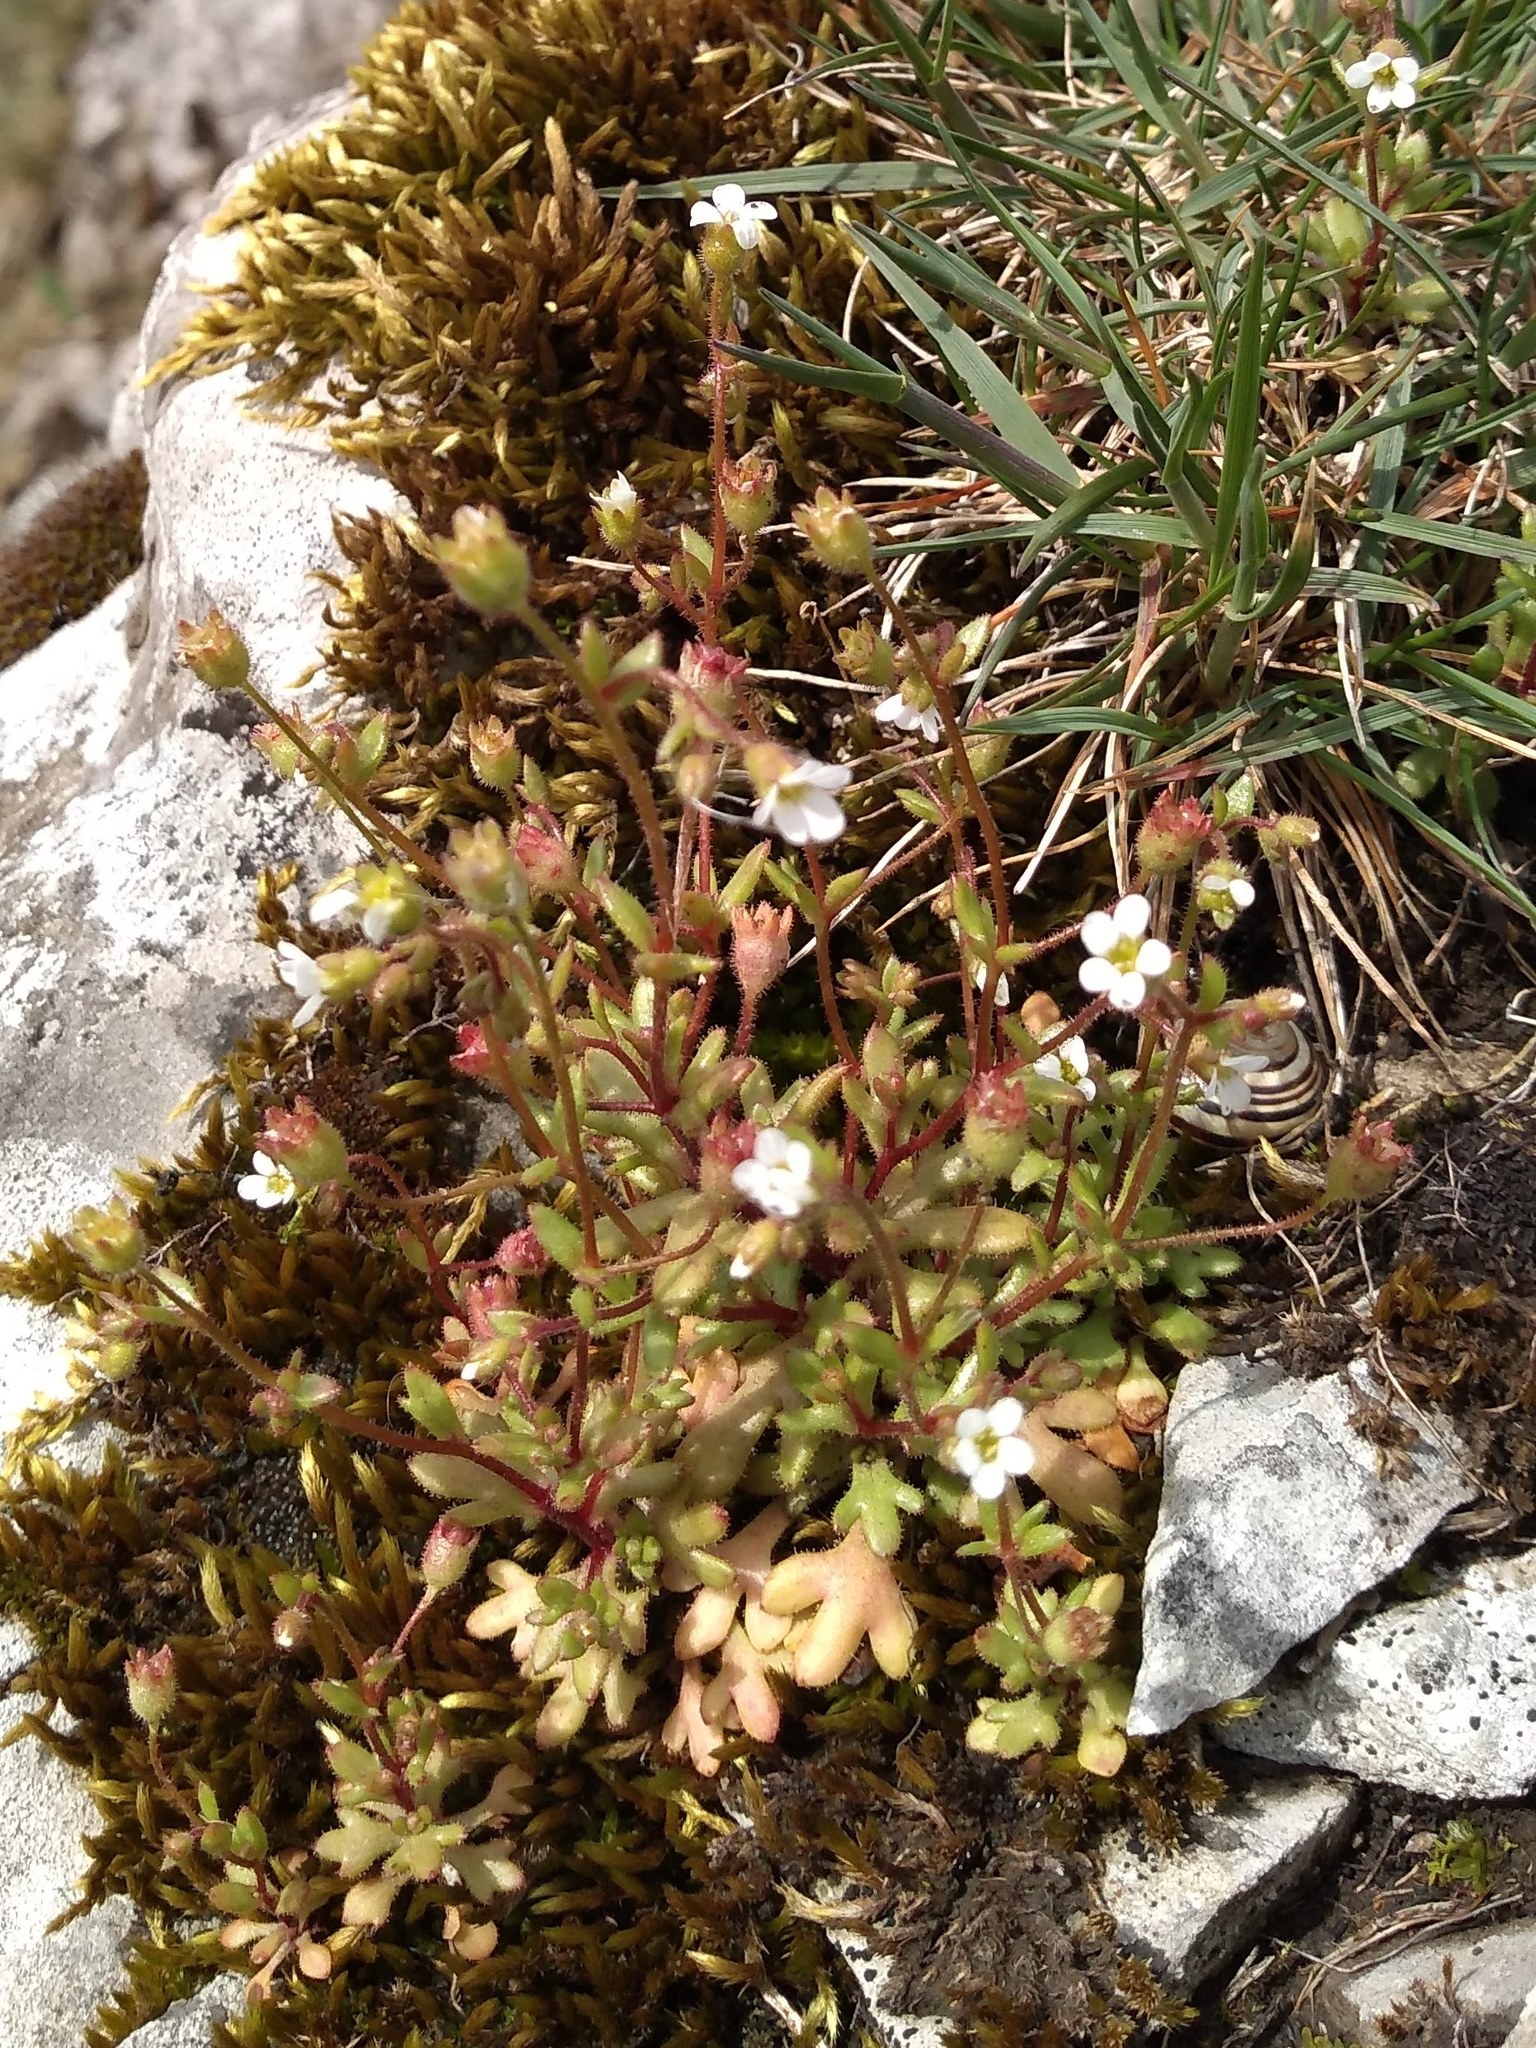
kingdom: Plantae
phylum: Tracheophyta
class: Magnoliopsida
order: Saxifragales
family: Saxifragaceae
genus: Saxifraga
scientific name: Saxifraga tridactylites
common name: Rue-leaved saxifrage
